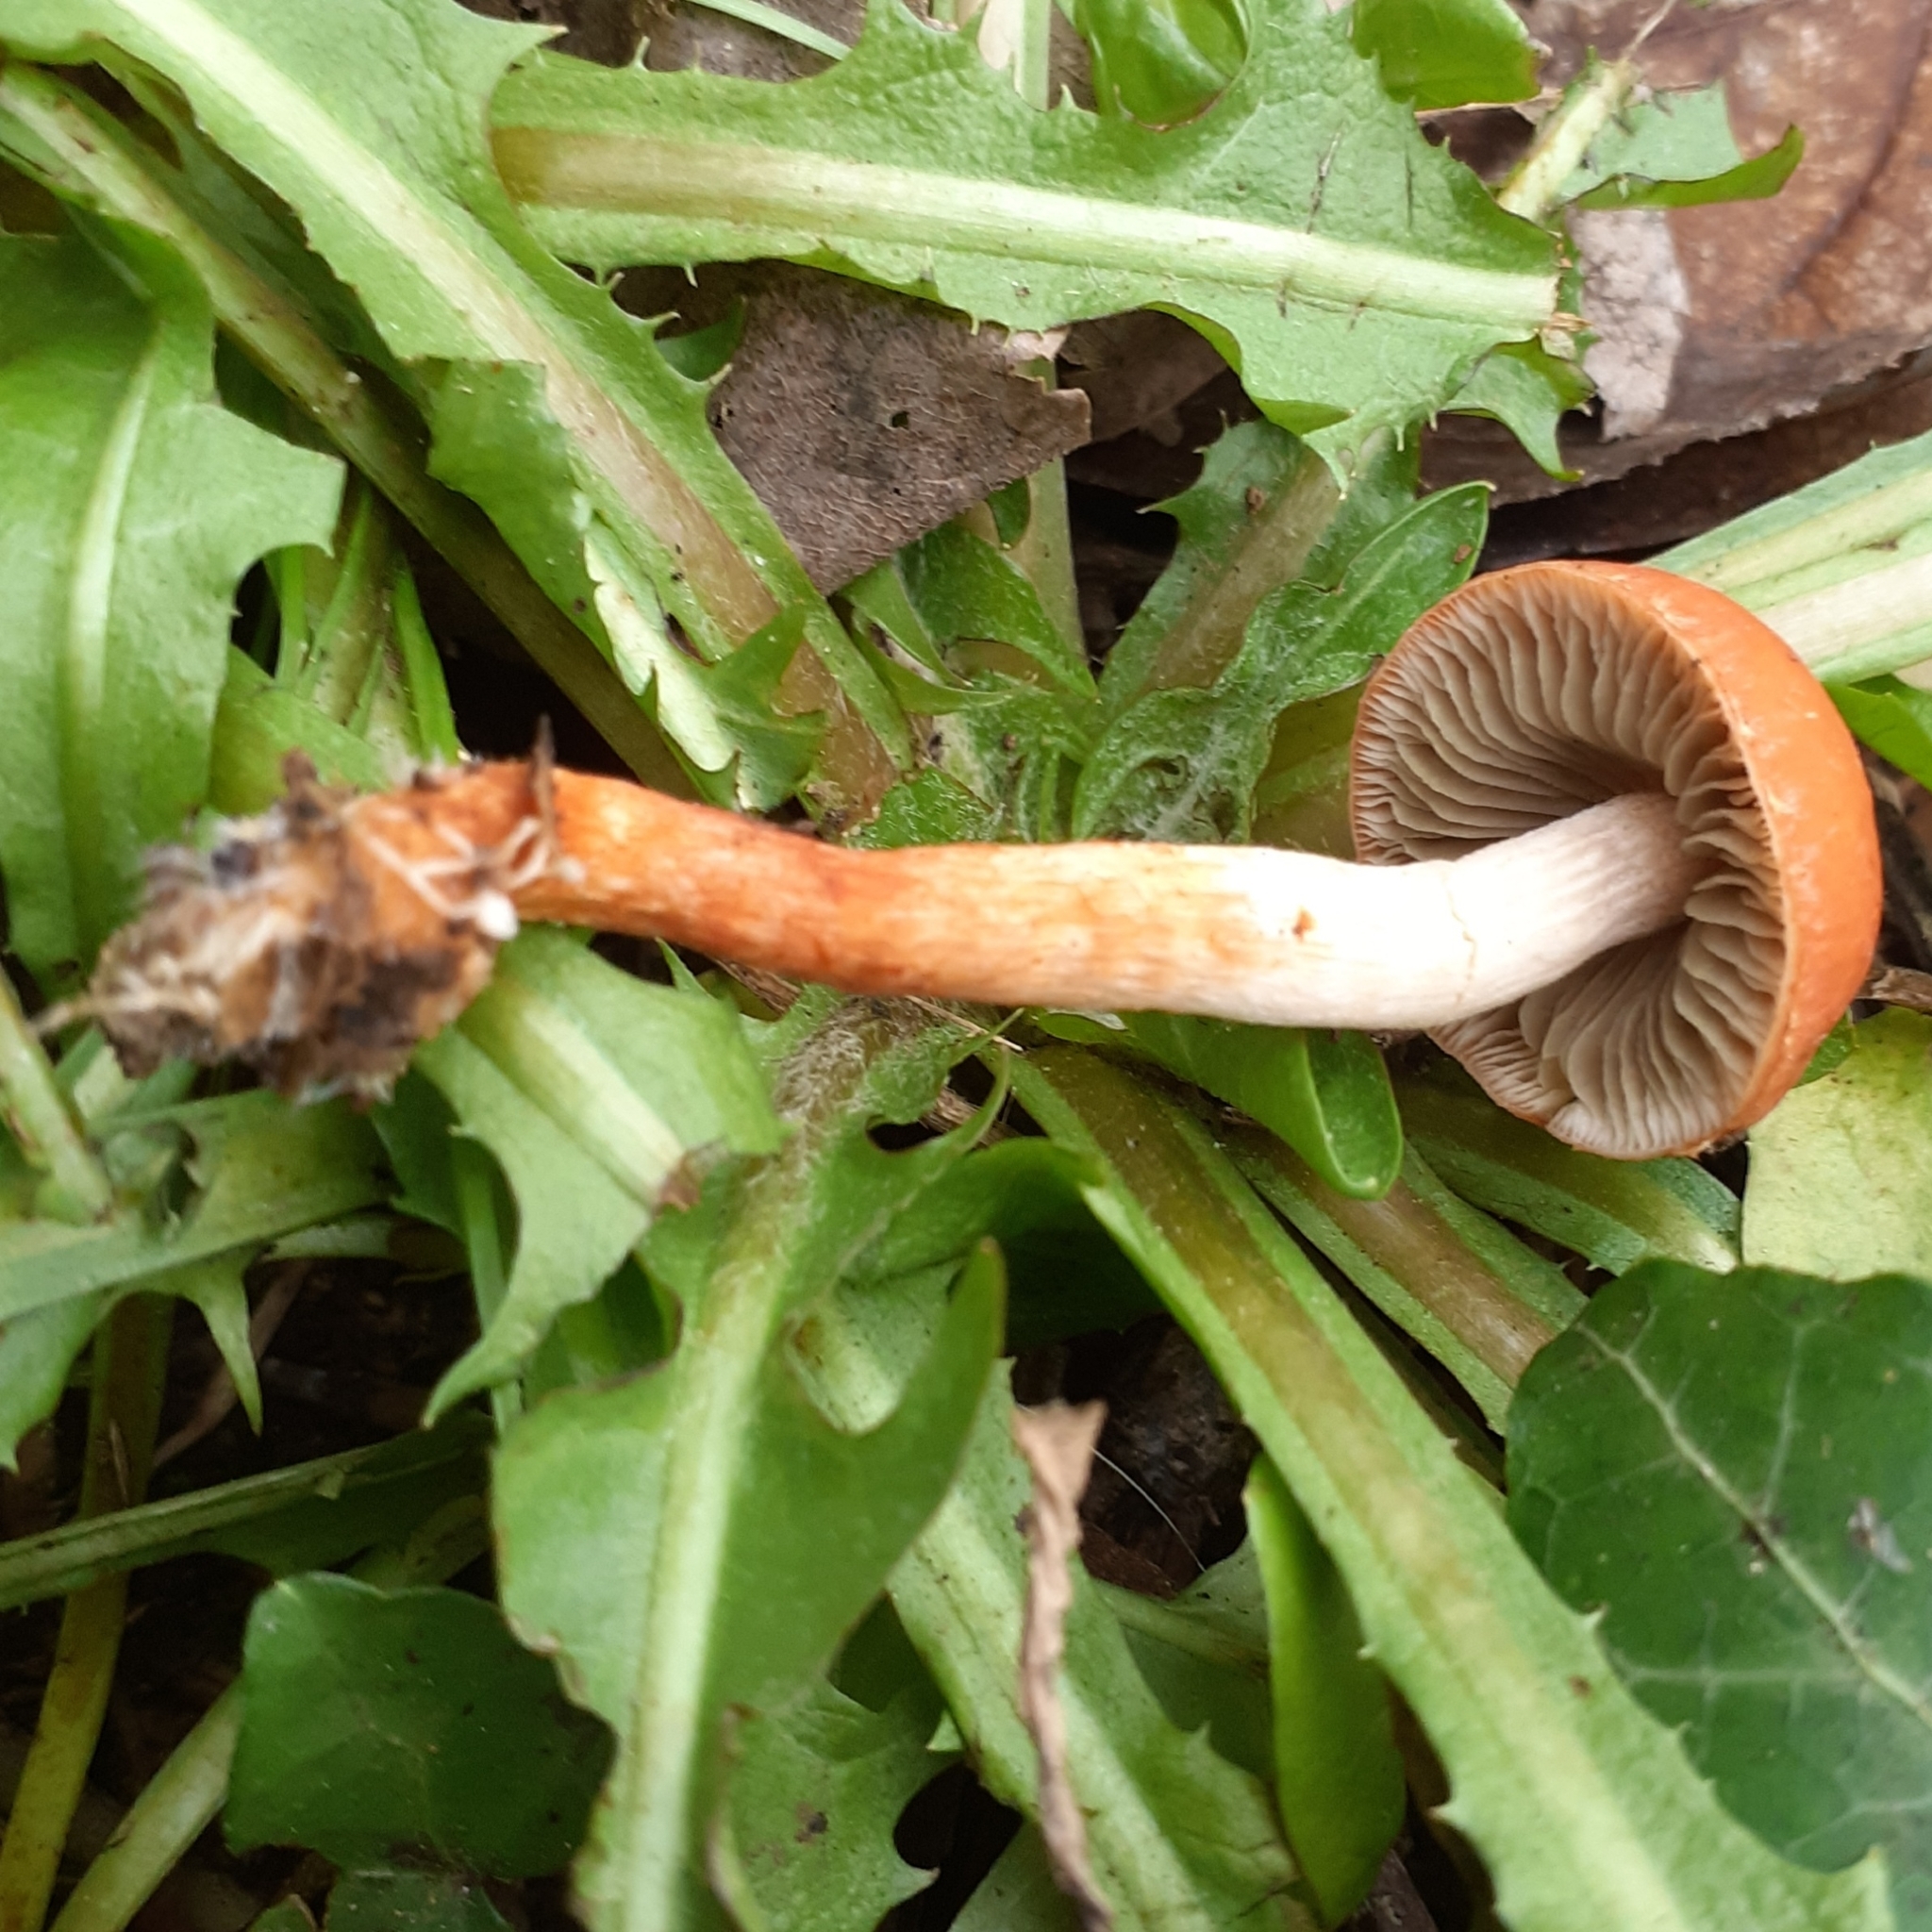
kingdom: Fungi
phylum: Basidiomycota
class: Agaricomycetes
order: Agaricales
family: Strophariaceae
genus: Leratiomyces
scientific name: Leratiomyces ceres
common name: Redlead roundhead
